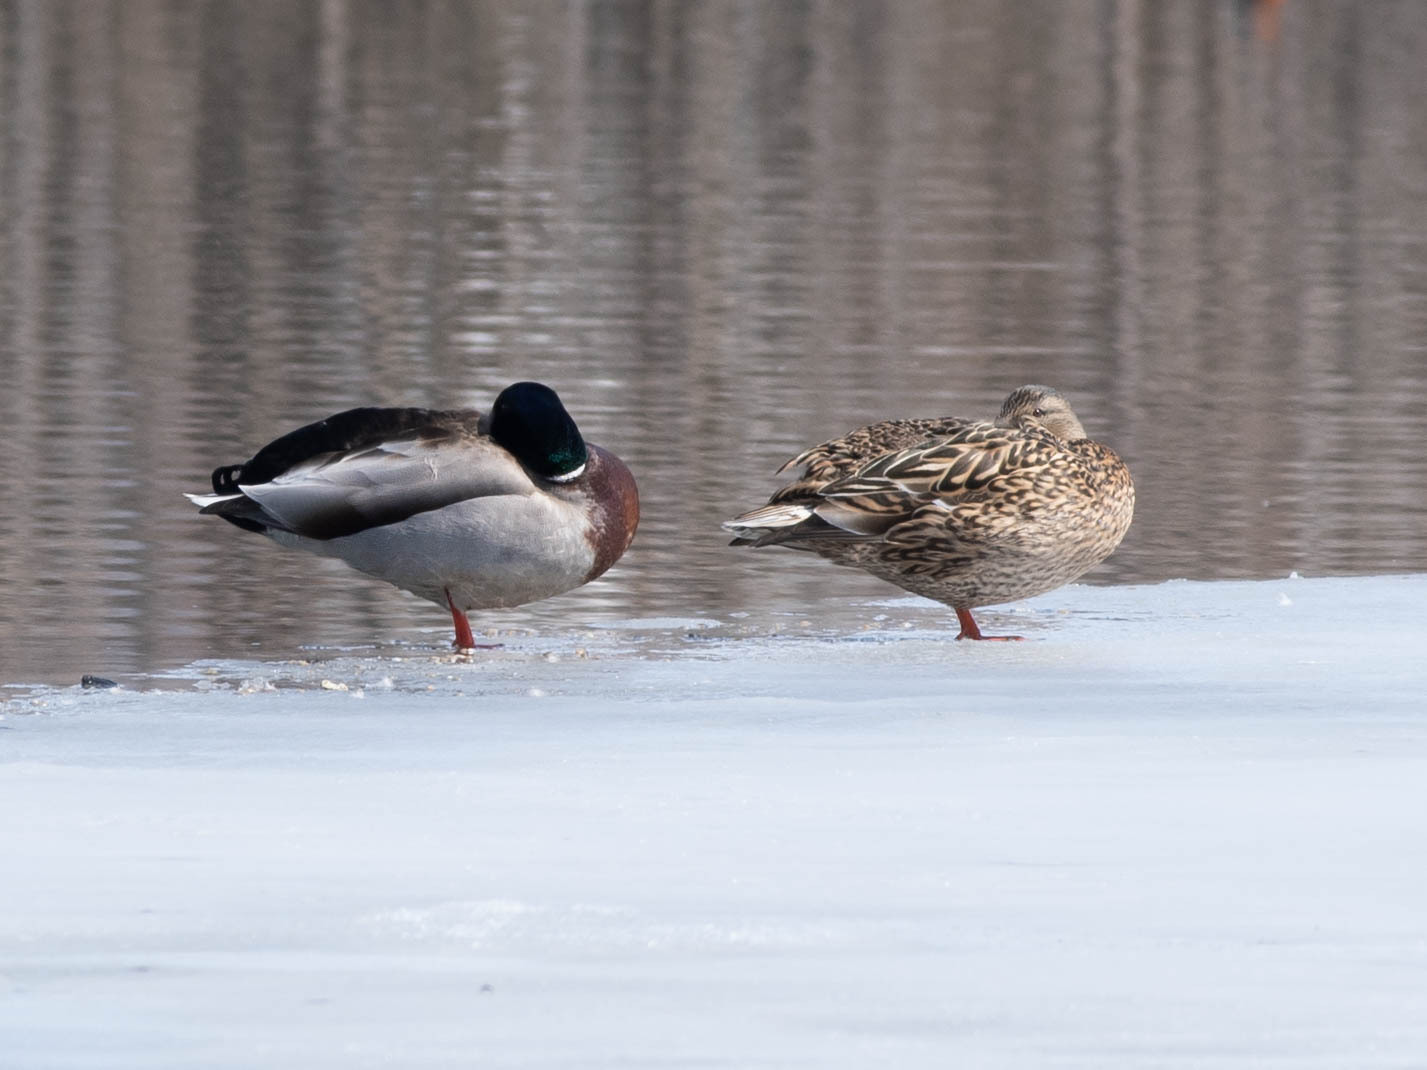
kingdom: Animalia
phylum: Chordata
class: Aves
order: Anseriformes
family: Anatidae
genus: Anas
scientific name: Anas platyrhynchos
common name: Mallard
